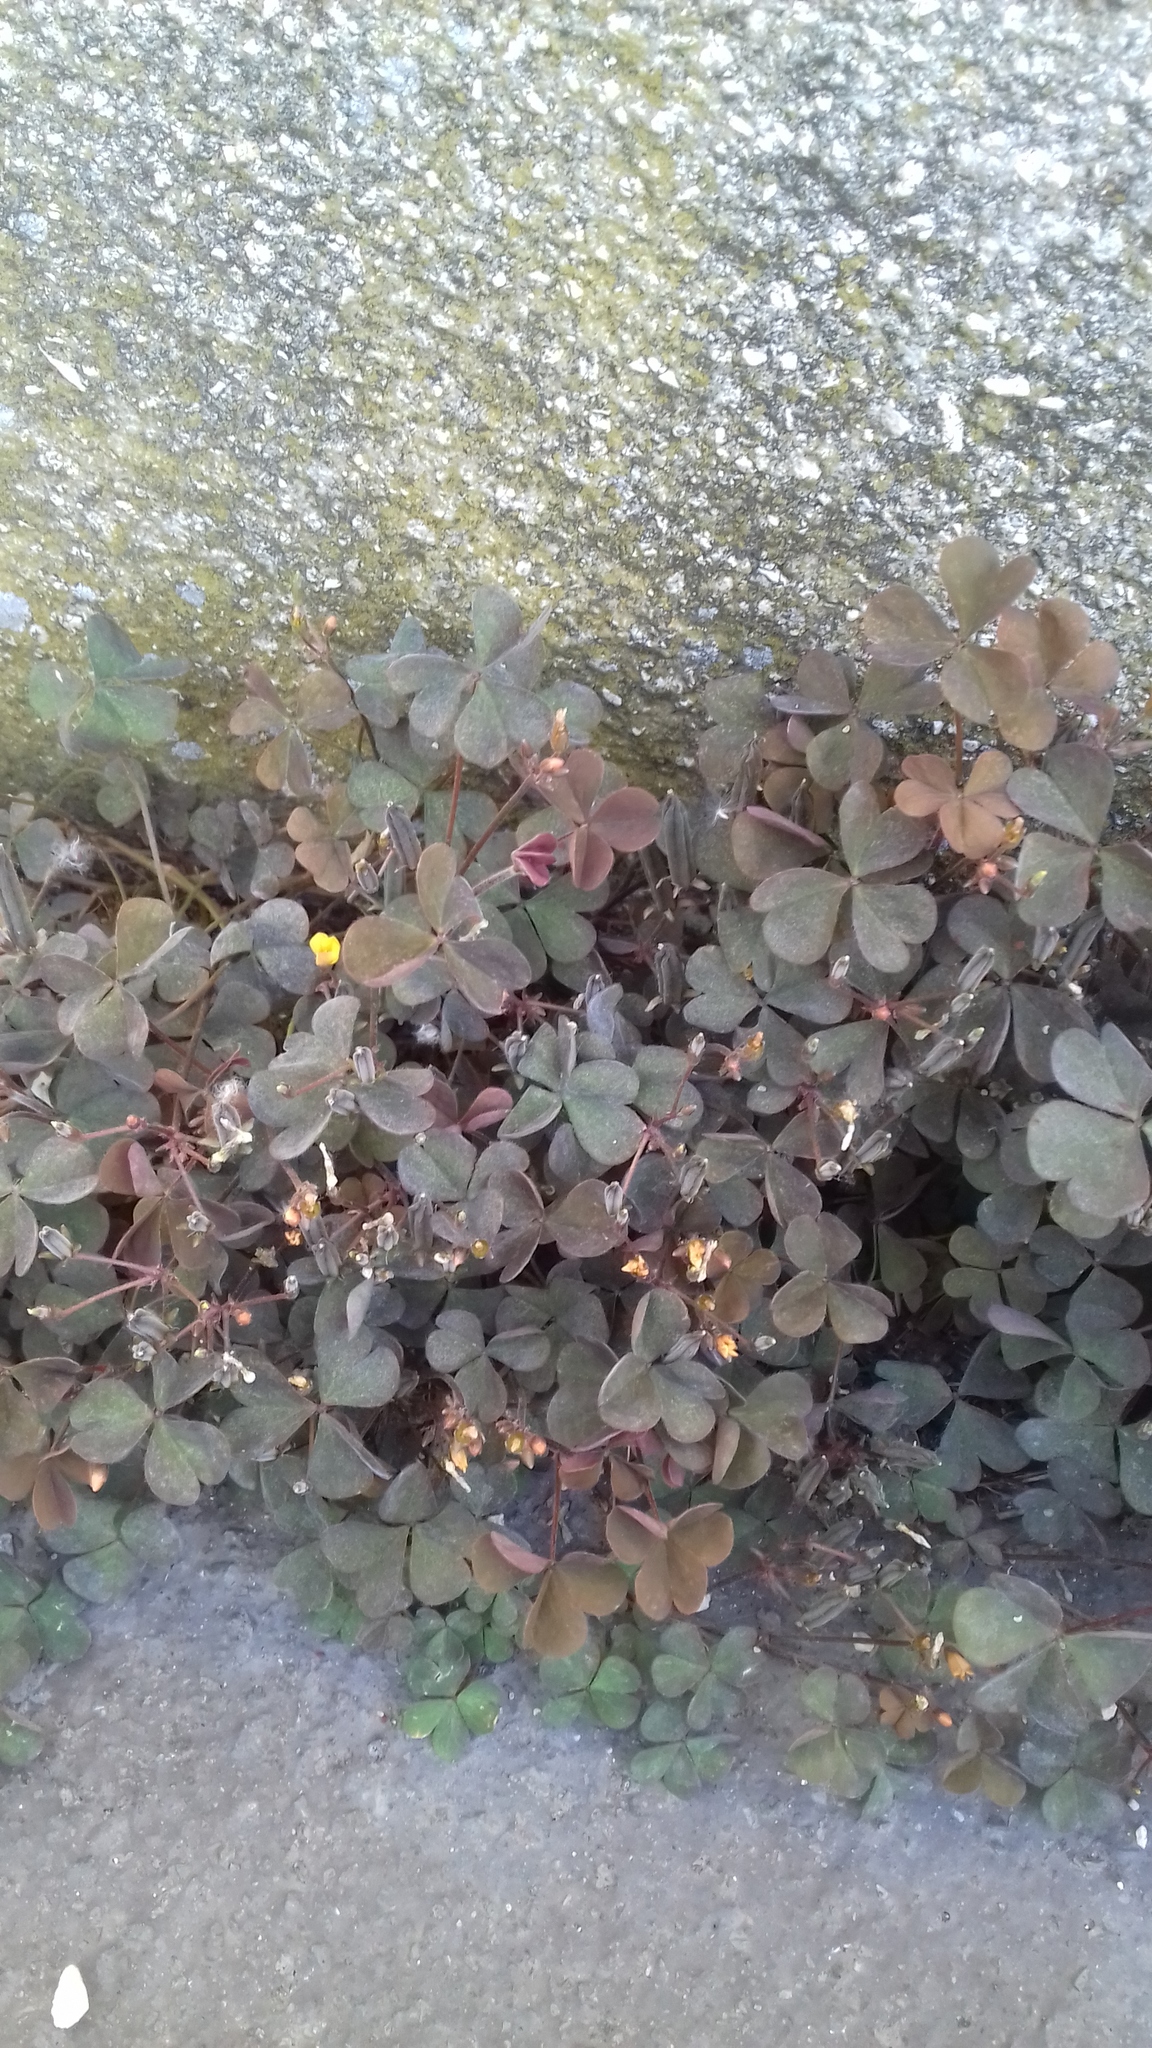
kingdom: Plantae
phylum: Tracheophyta
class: Magnoliopsida
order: Oxalidales
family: Oxalidaceae
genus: Oxalis
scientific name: Oxalis corniculata
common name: Procumbent yellow-sorrel
